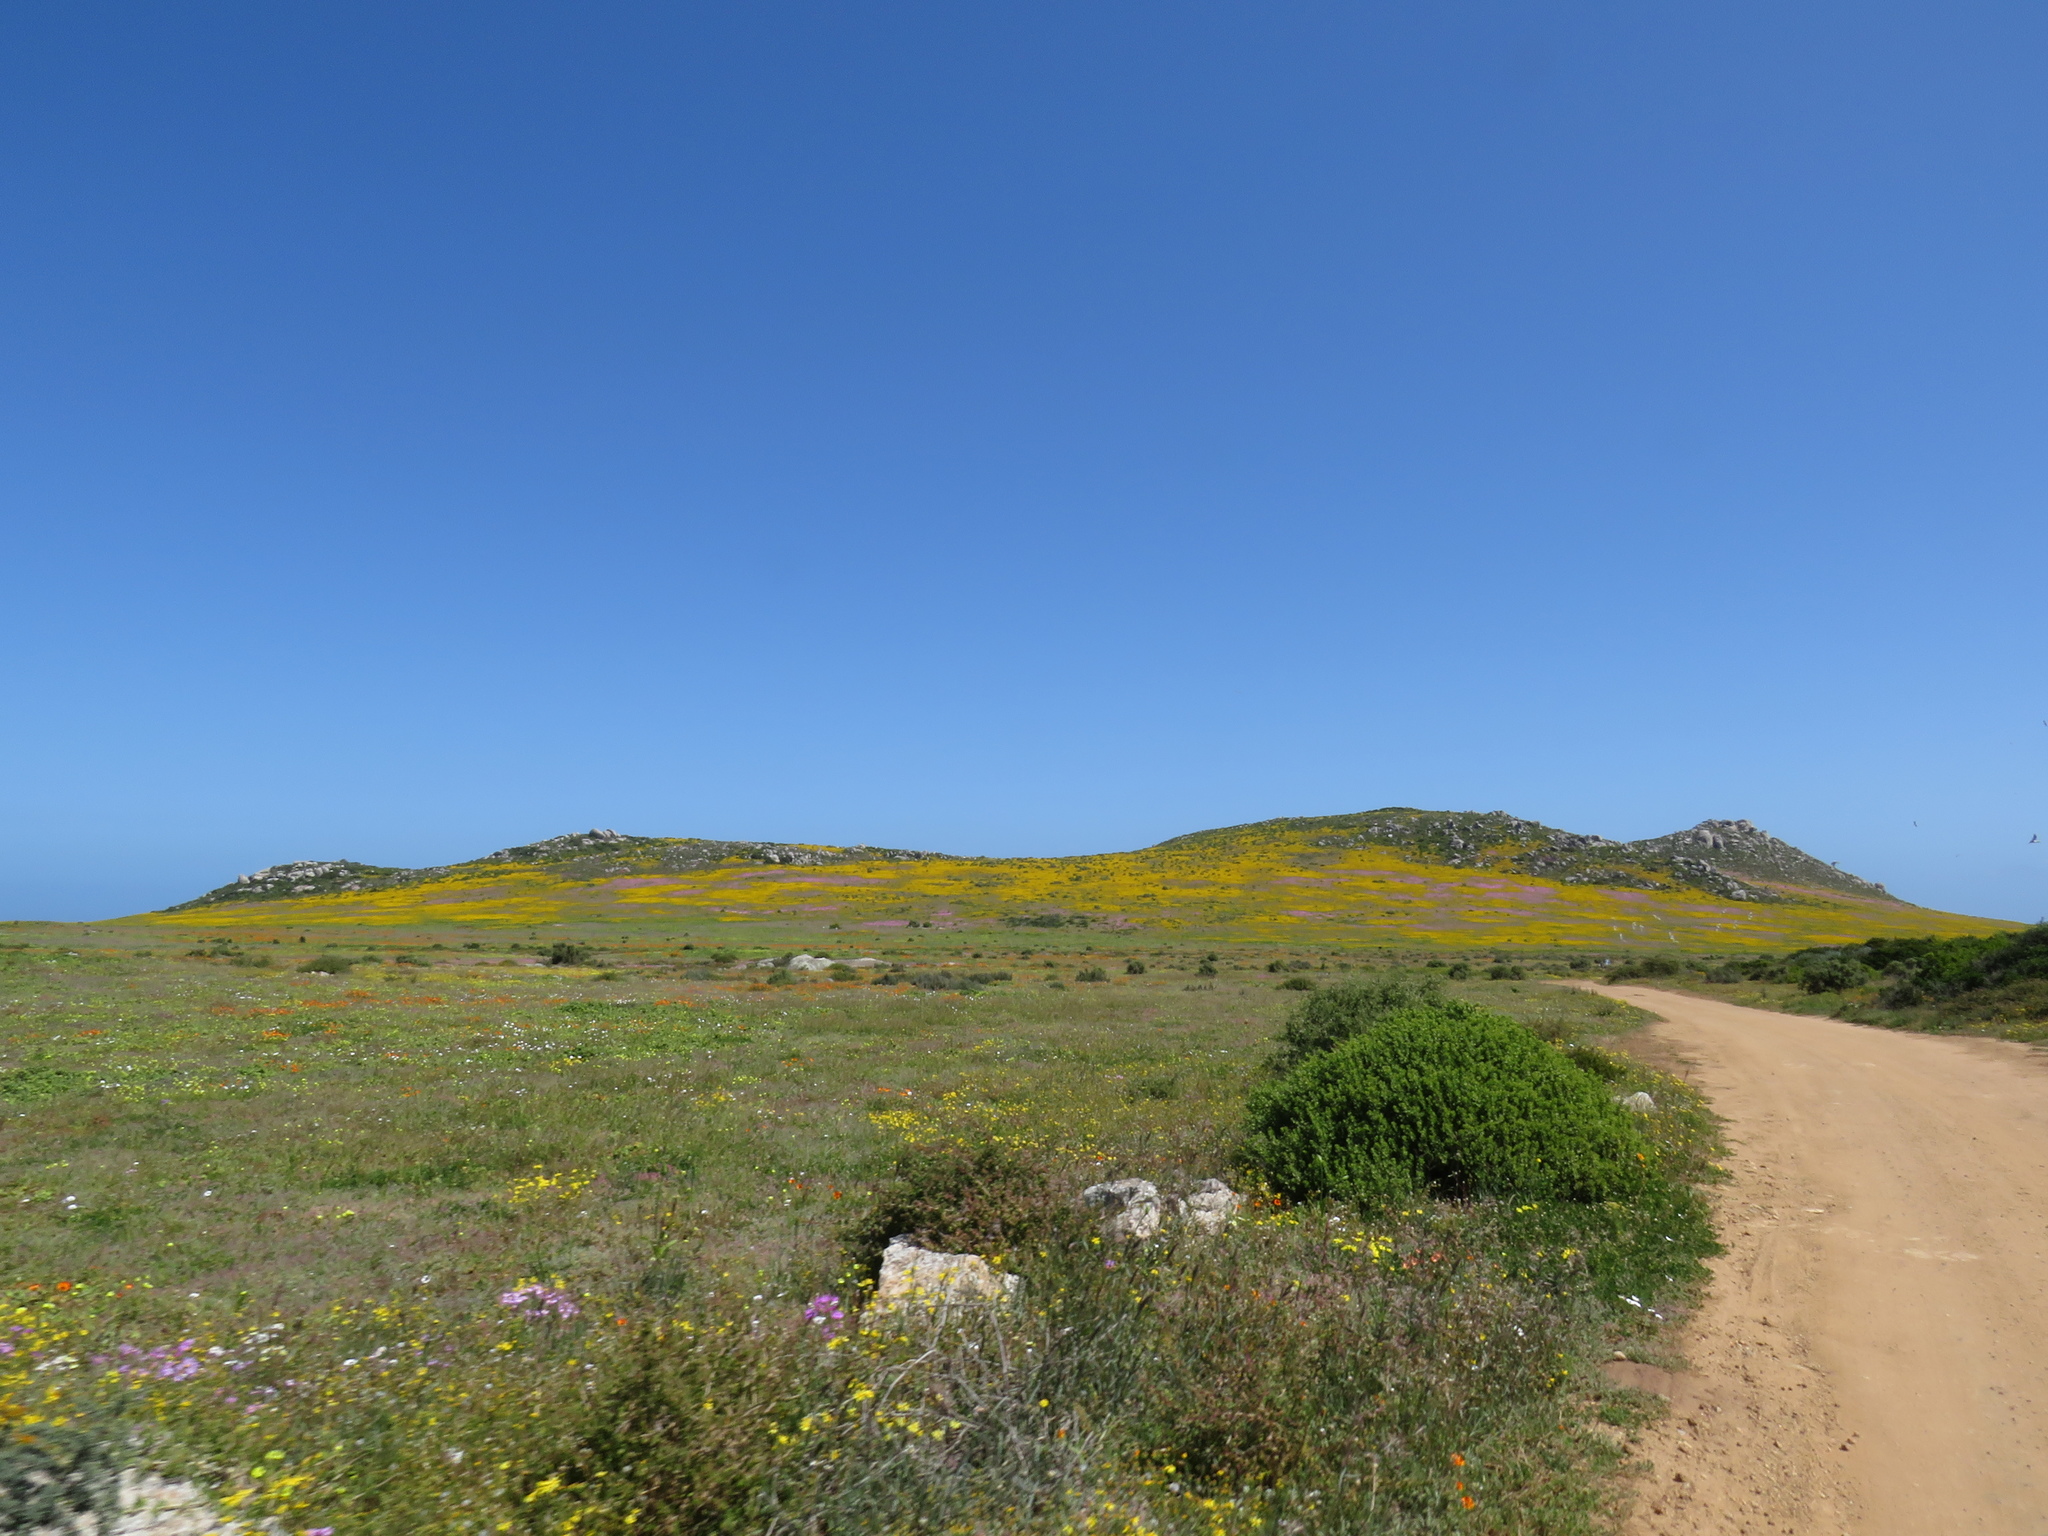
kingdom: Plantae
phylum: Tracheophyta
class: Magnoliopsida
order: Asterales
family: Asteraceae
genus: Oncosiphon
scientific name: Oncosiphon suffruticosus
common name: Shrubby mayweed
